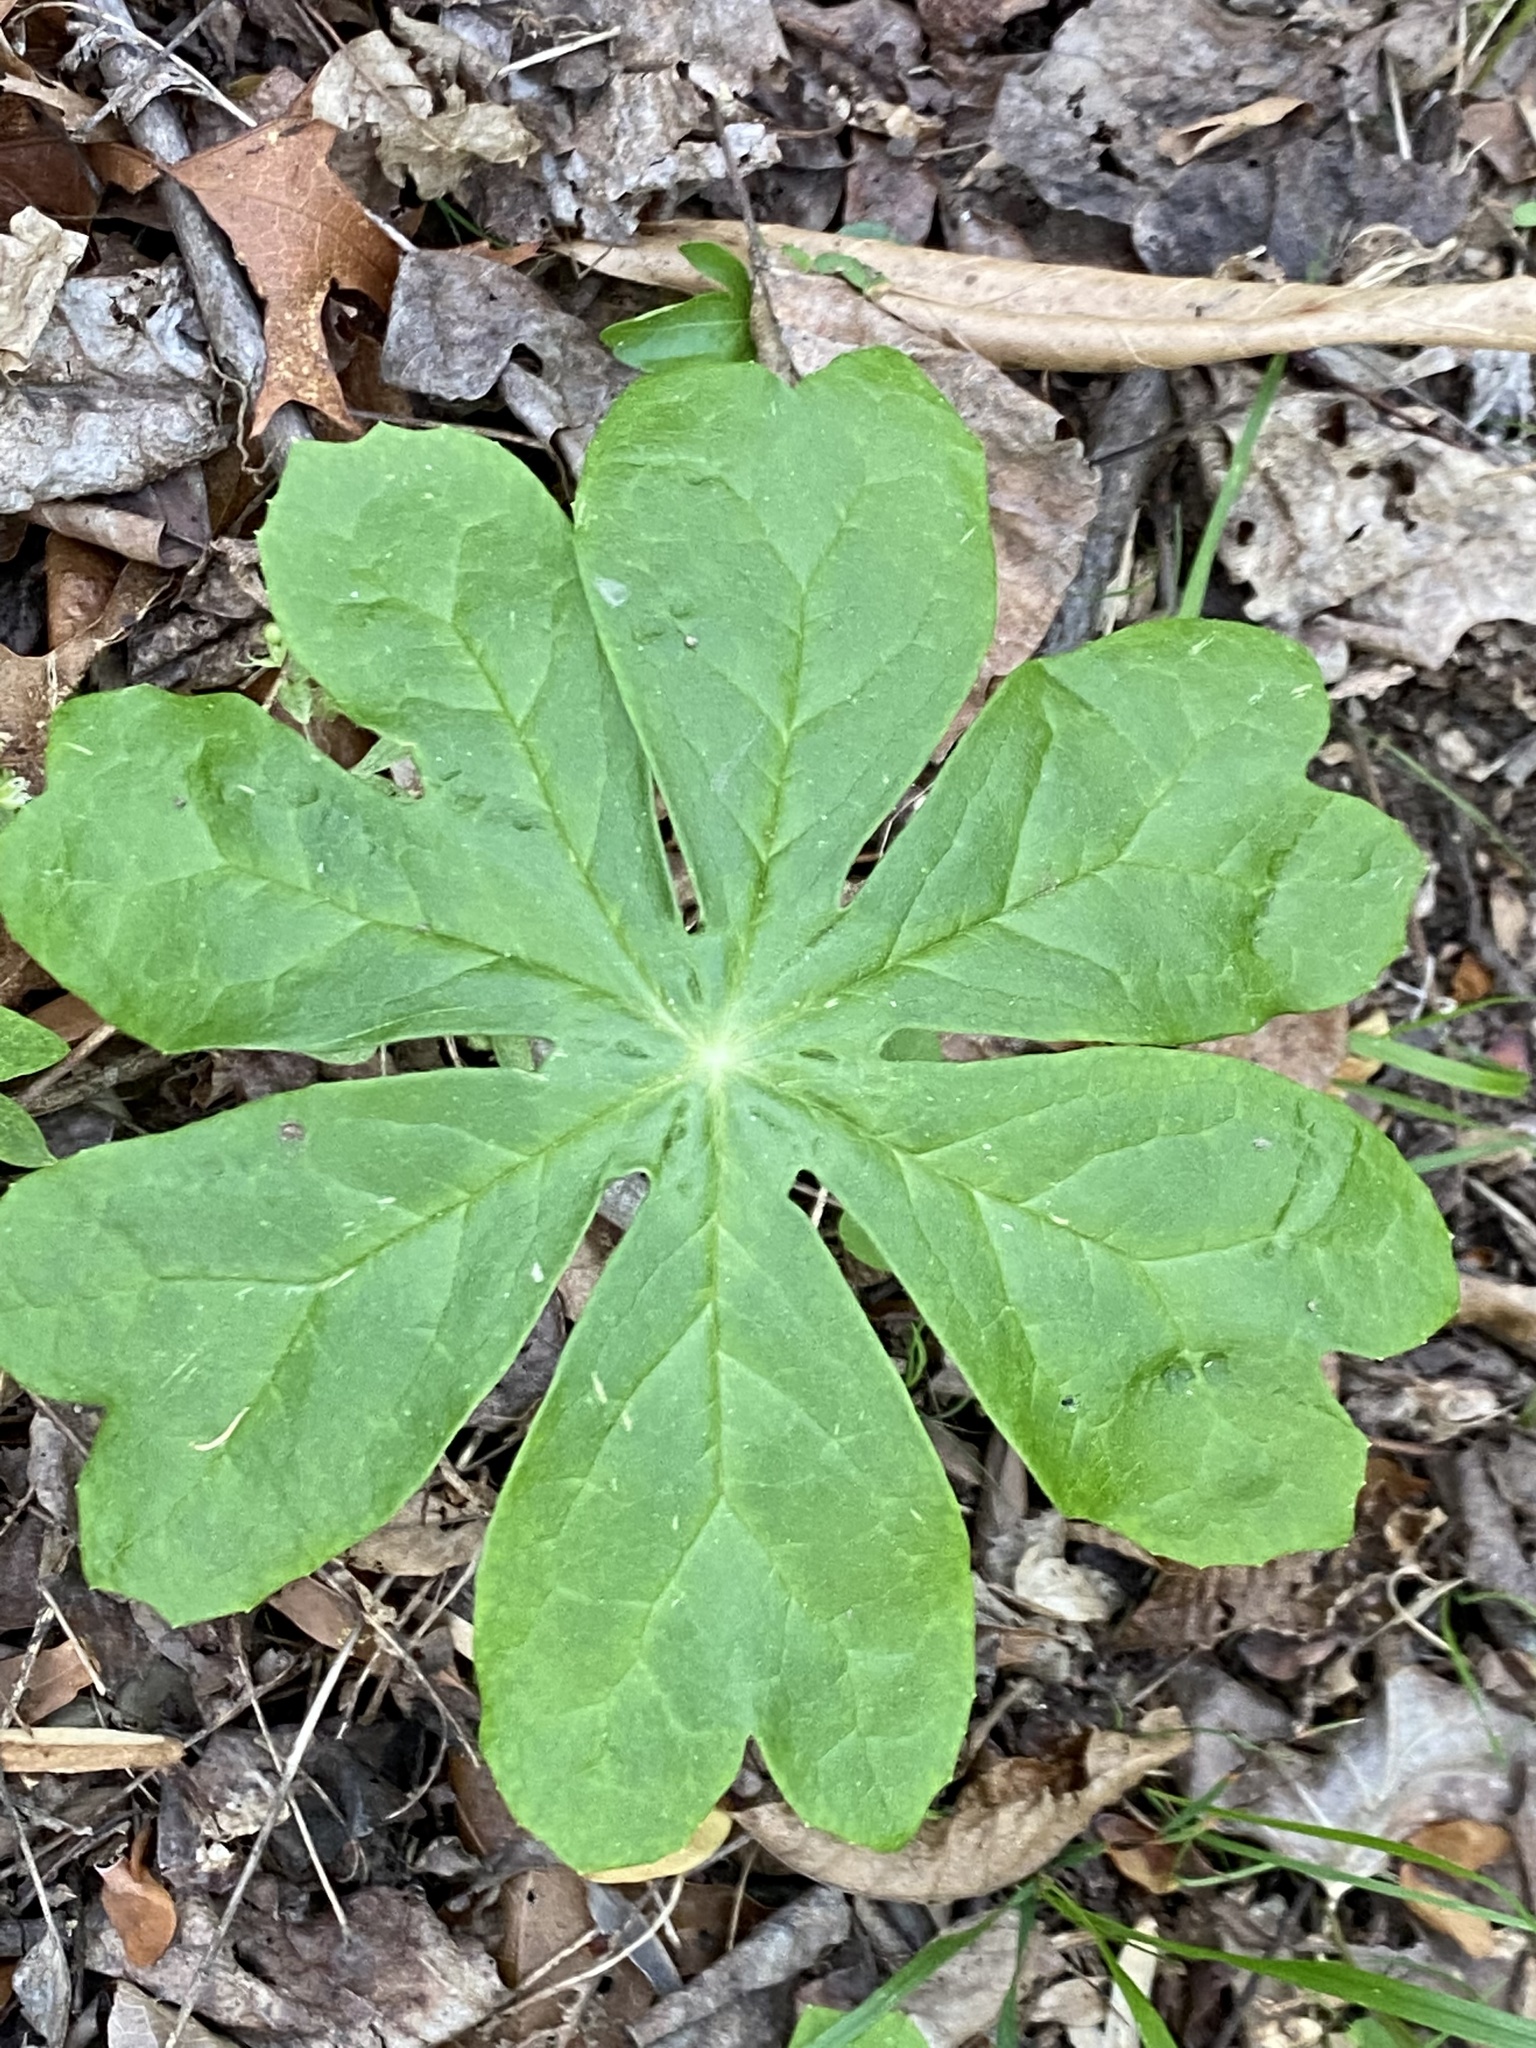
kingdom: Plantae
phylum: Tracheophyta
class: Magnoliopsida
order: Ranunculales
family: Berberidaceae
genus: Podophyllum
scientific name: Podophyllum peltatum
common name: Wild mandrake
